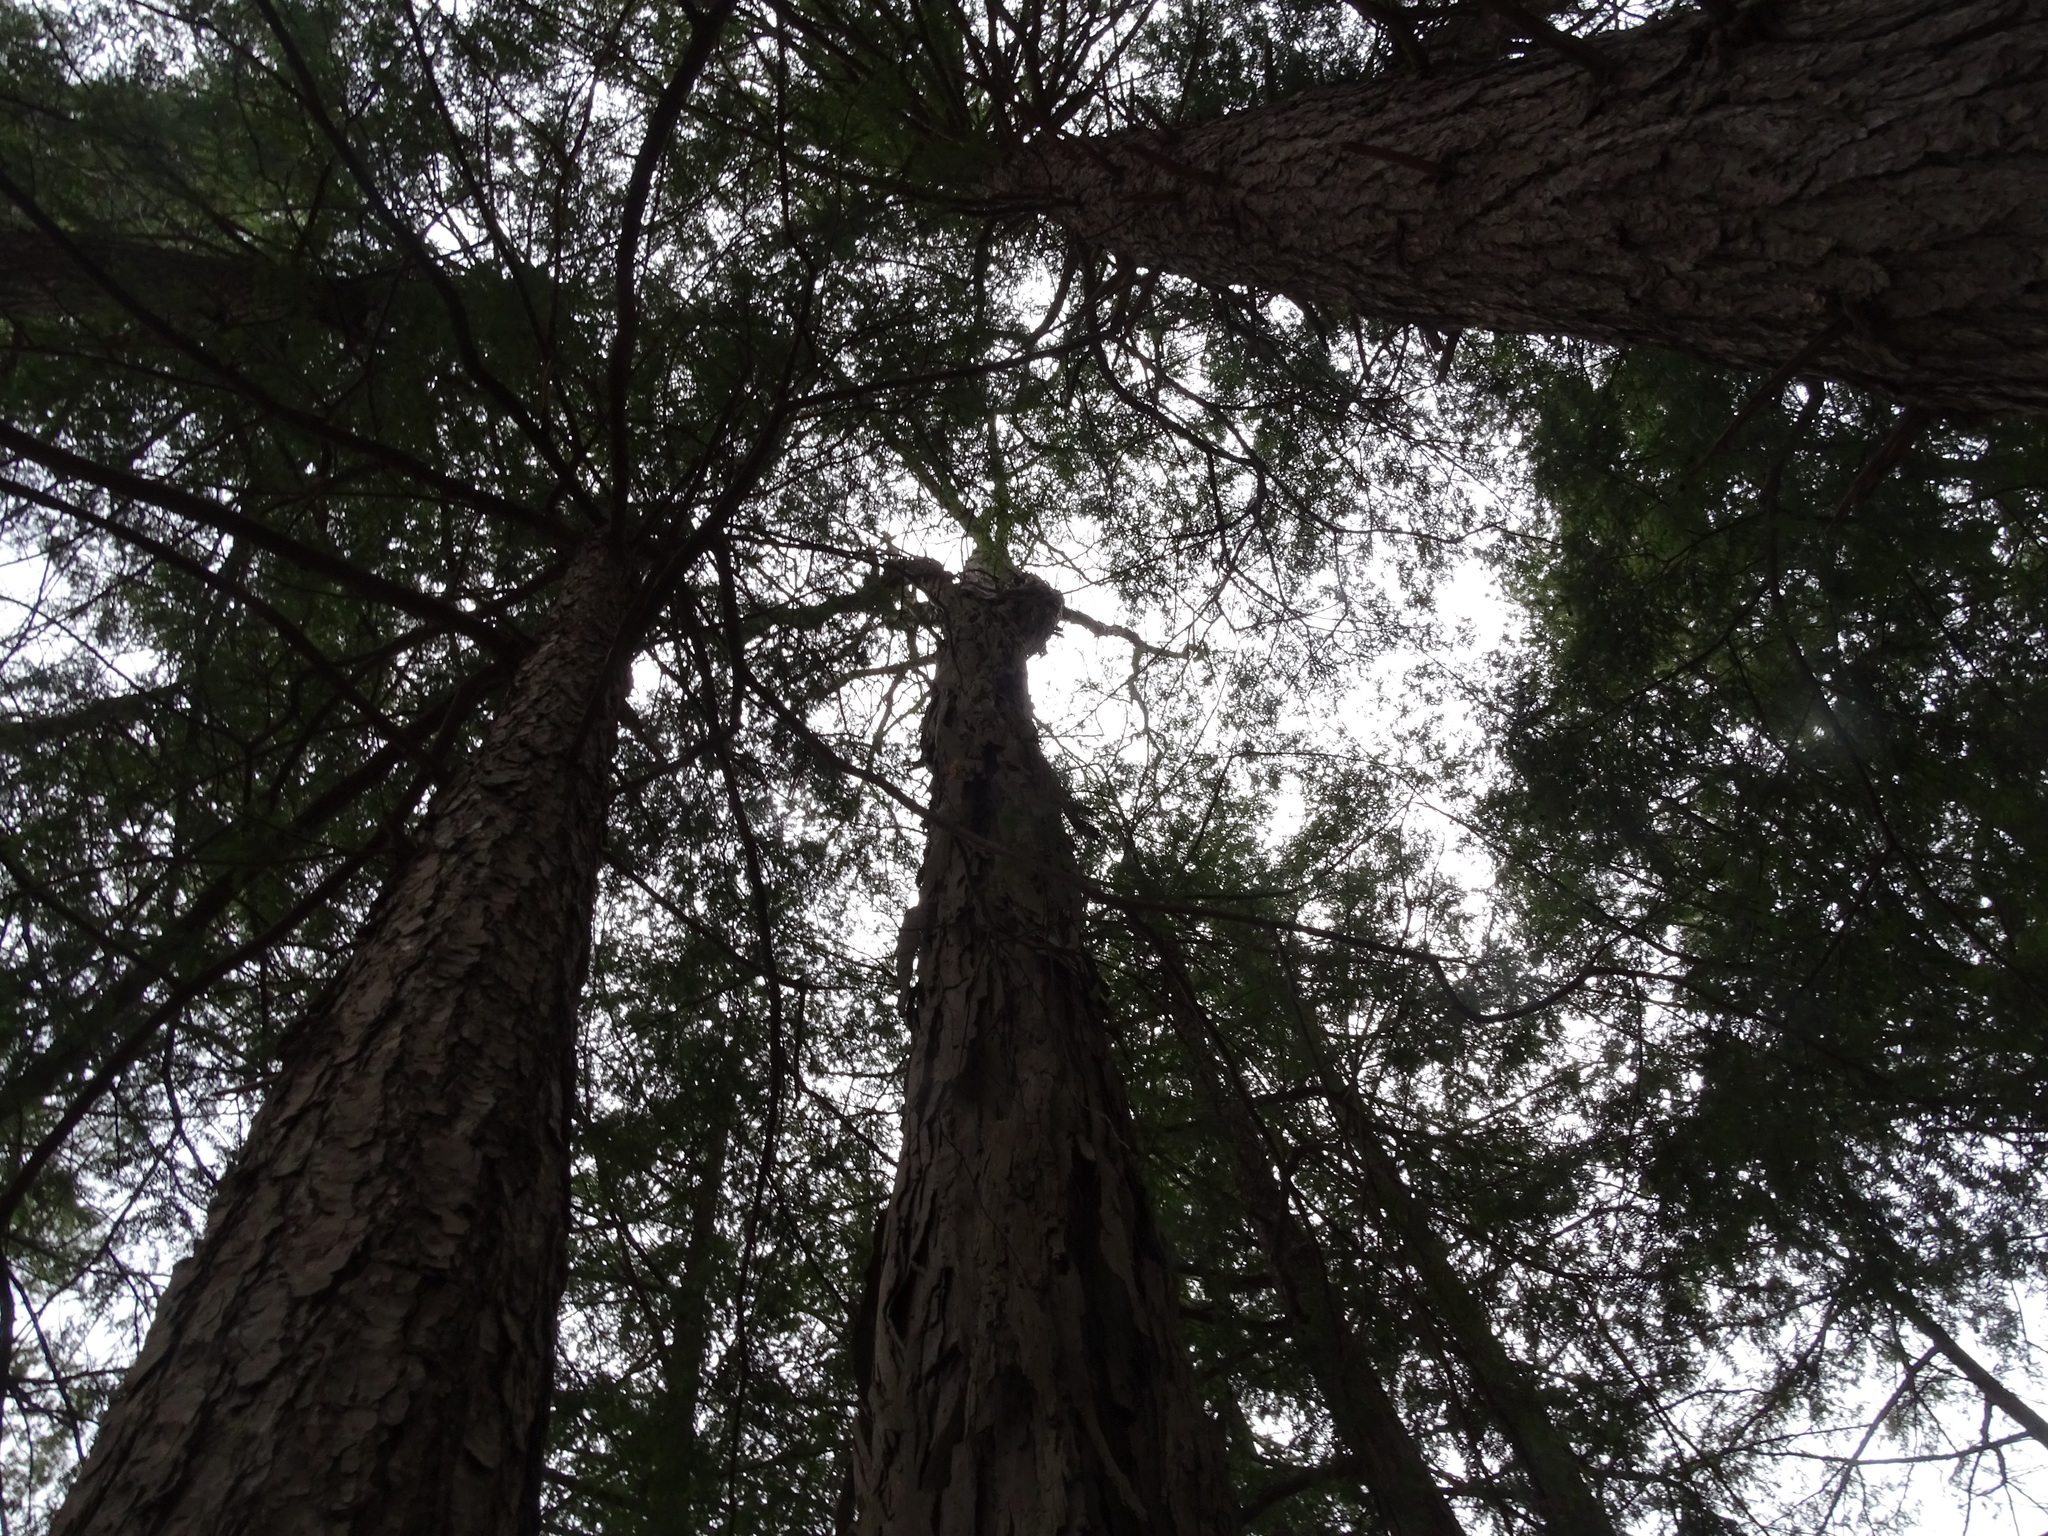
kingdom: Plantae
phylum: Tracheophyta
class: Magnoliopsida
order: Fagales
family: Juglandaceae
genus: Carya
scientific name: Carya ovata
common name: Shagbark hickory
